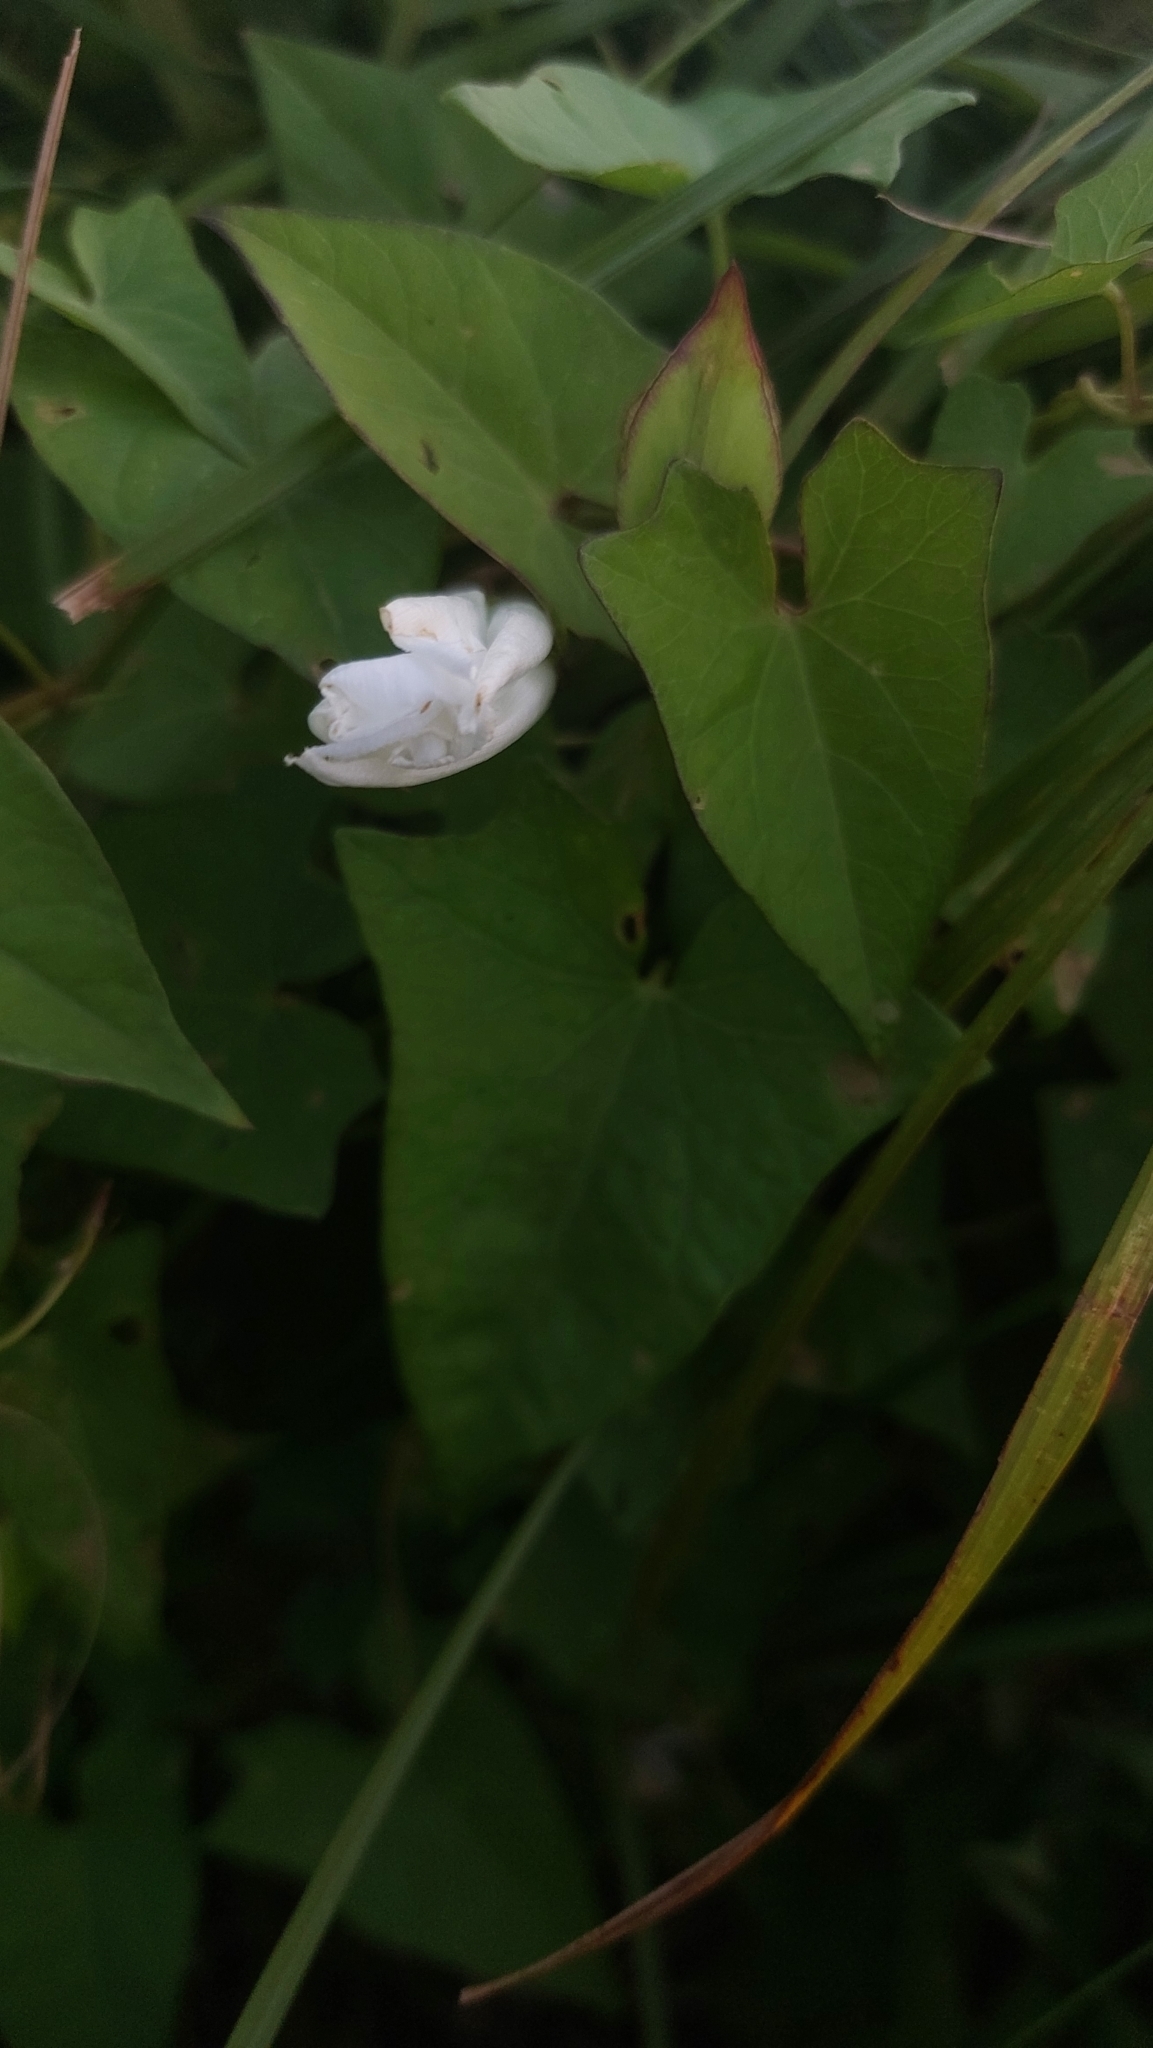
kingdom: Plantae
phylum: Tracheophyta
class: Magnoliopsida
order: Solanales
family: Convolvulaceae
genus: Calystegia
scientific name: Calystegia sepium
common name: Hedge bindweed
